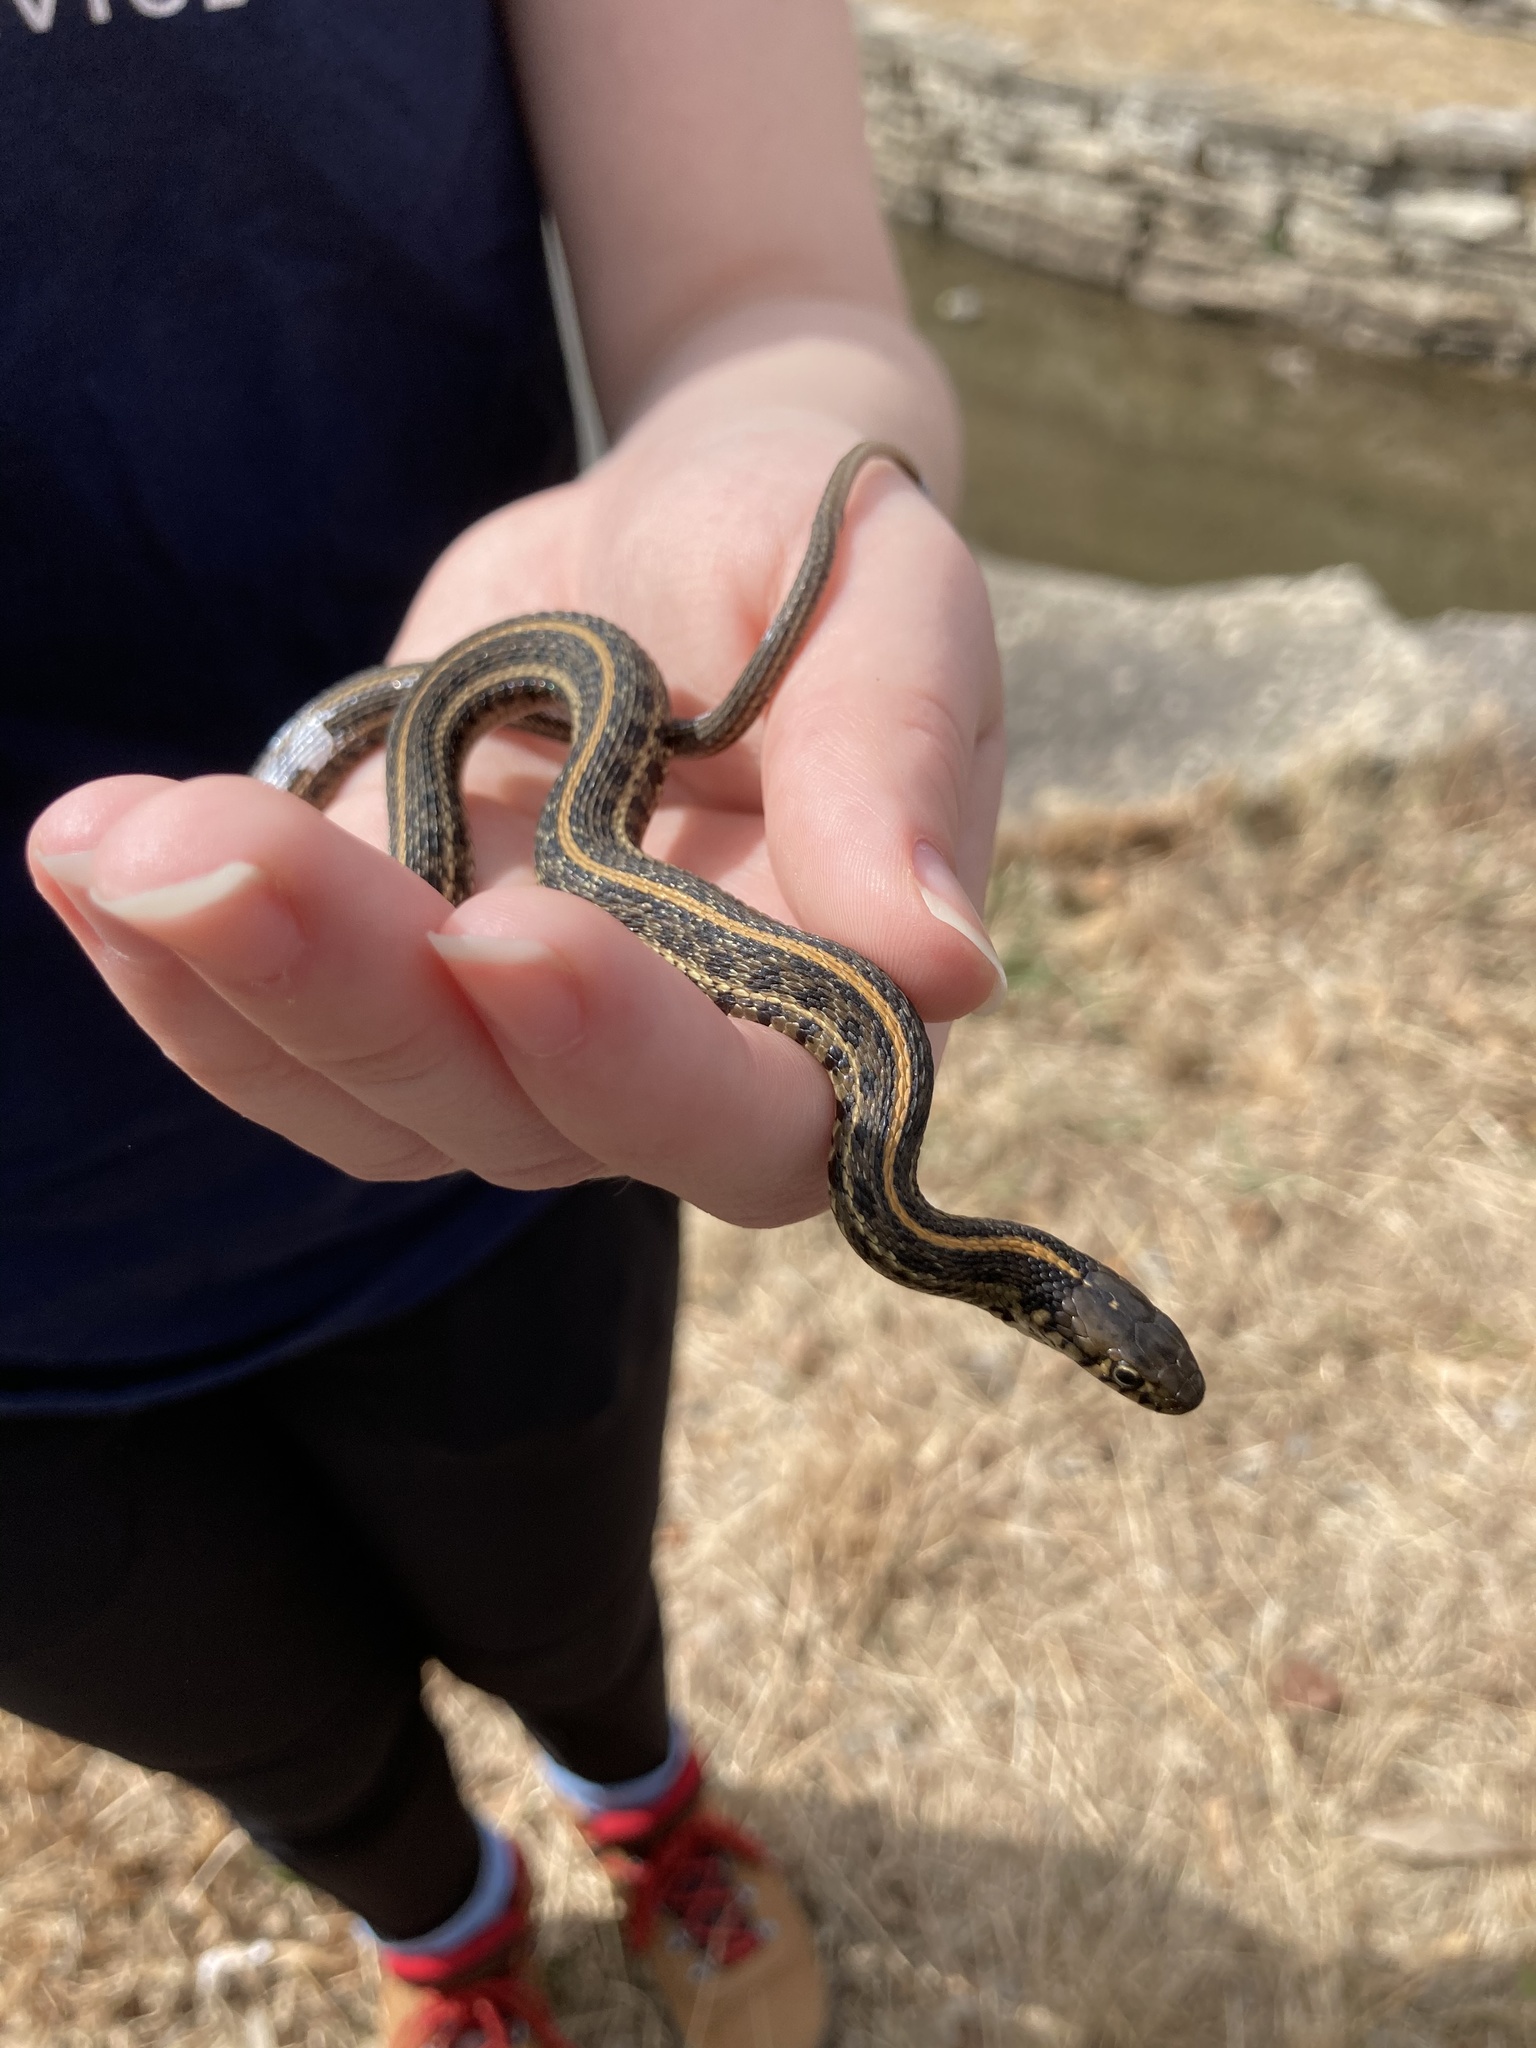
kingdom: Animalia
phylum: Chordata
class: Squamata
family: Colubridae
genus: Thamnophis
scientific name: Thamnophis radix
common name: Plains garter snake
